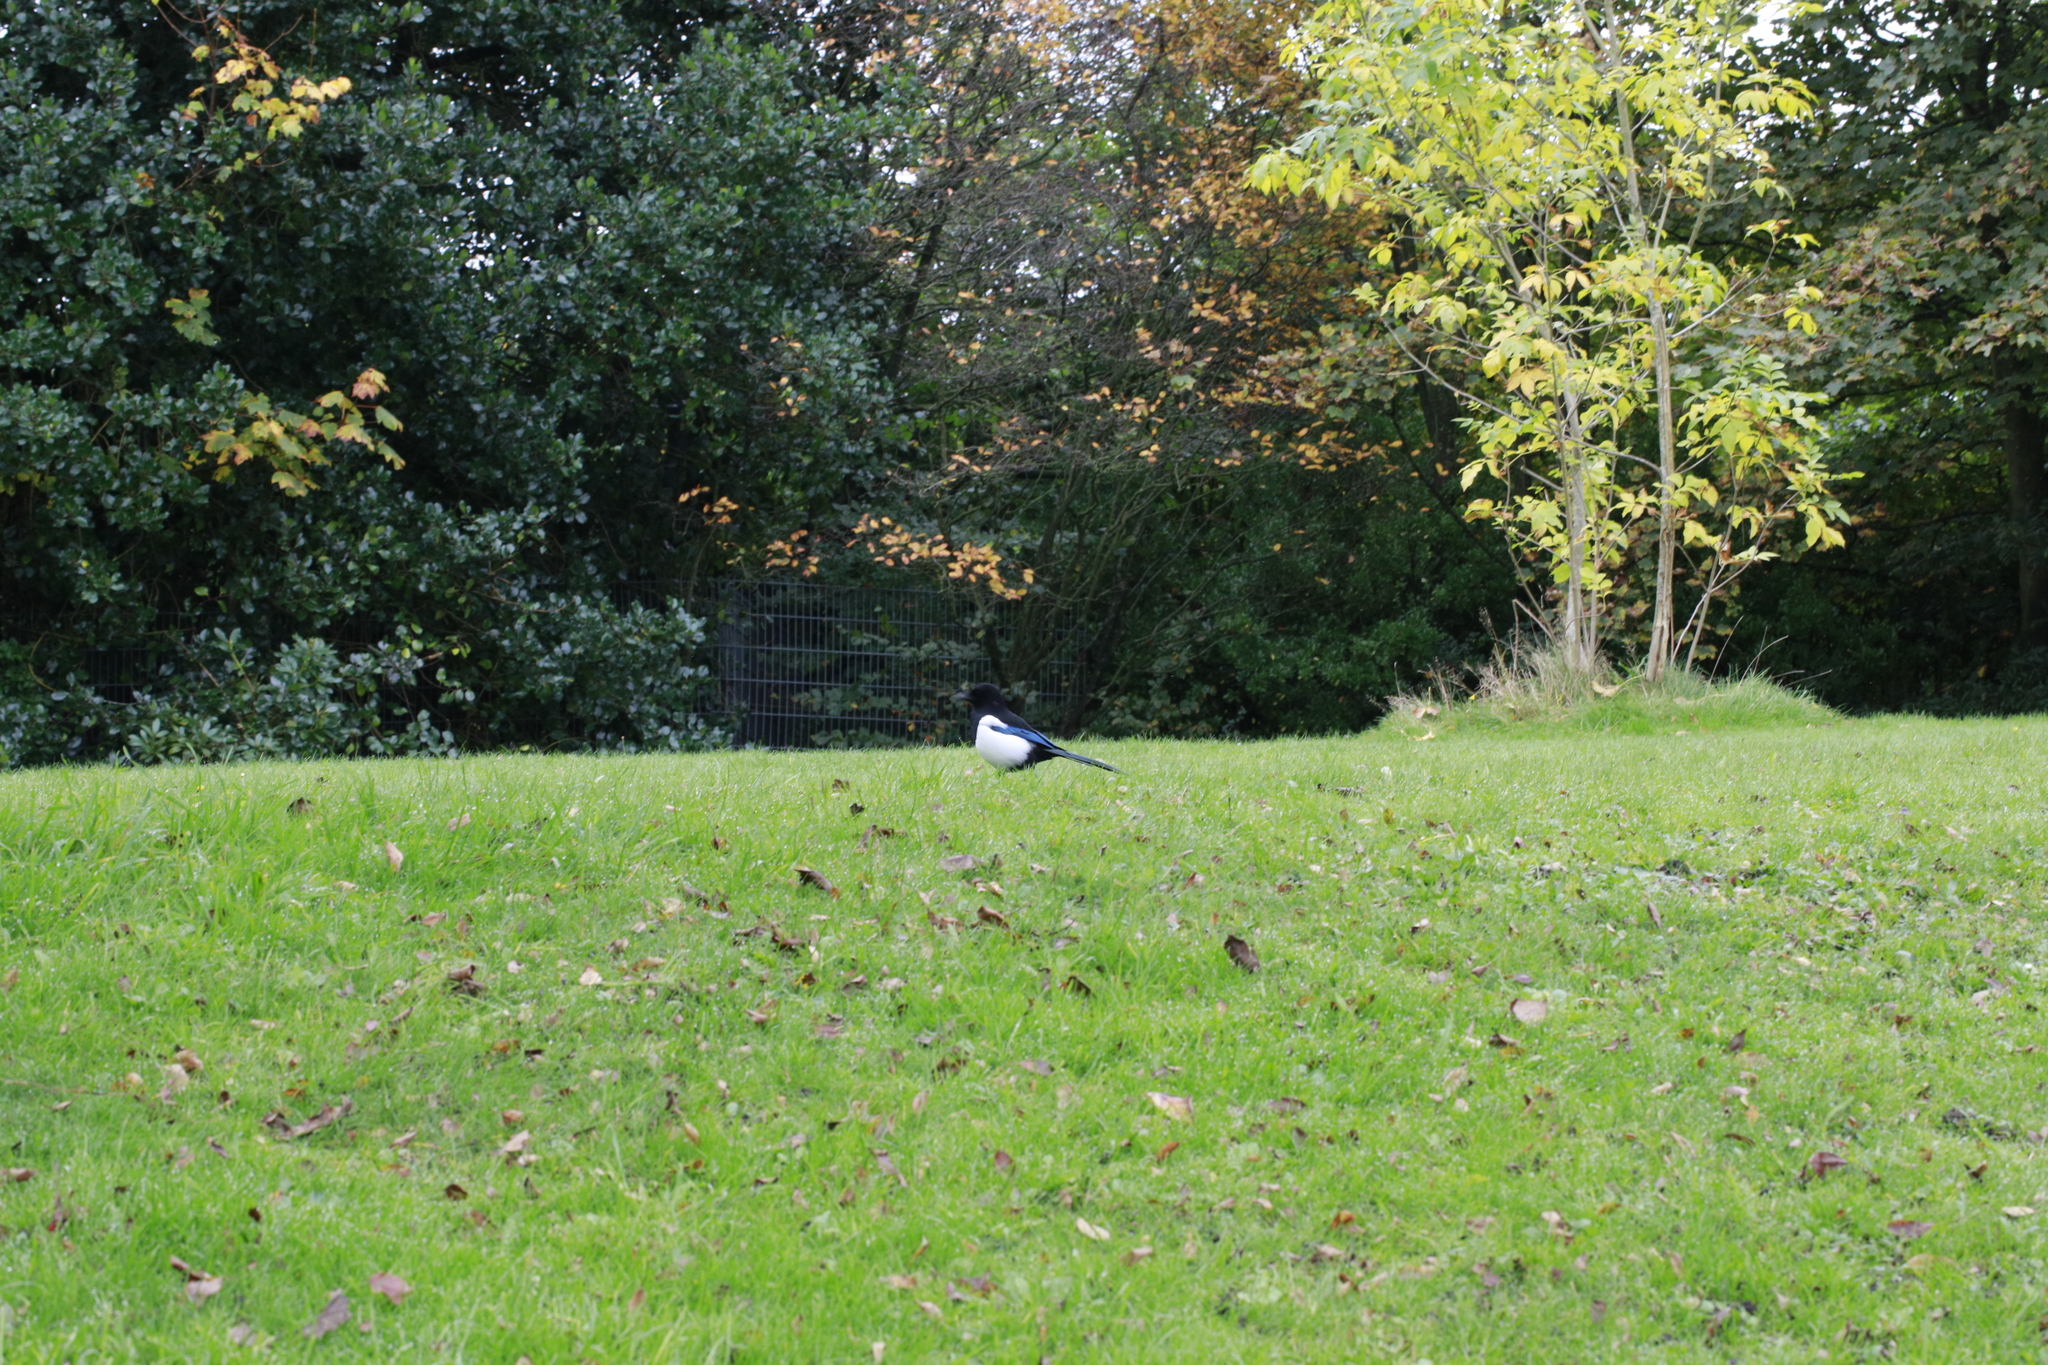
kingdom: Animalia
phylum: Chordata
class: Aves
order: Passeriformes
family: Corvidae
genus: Pica
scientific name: Pica pica
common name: Eurasian magpie
